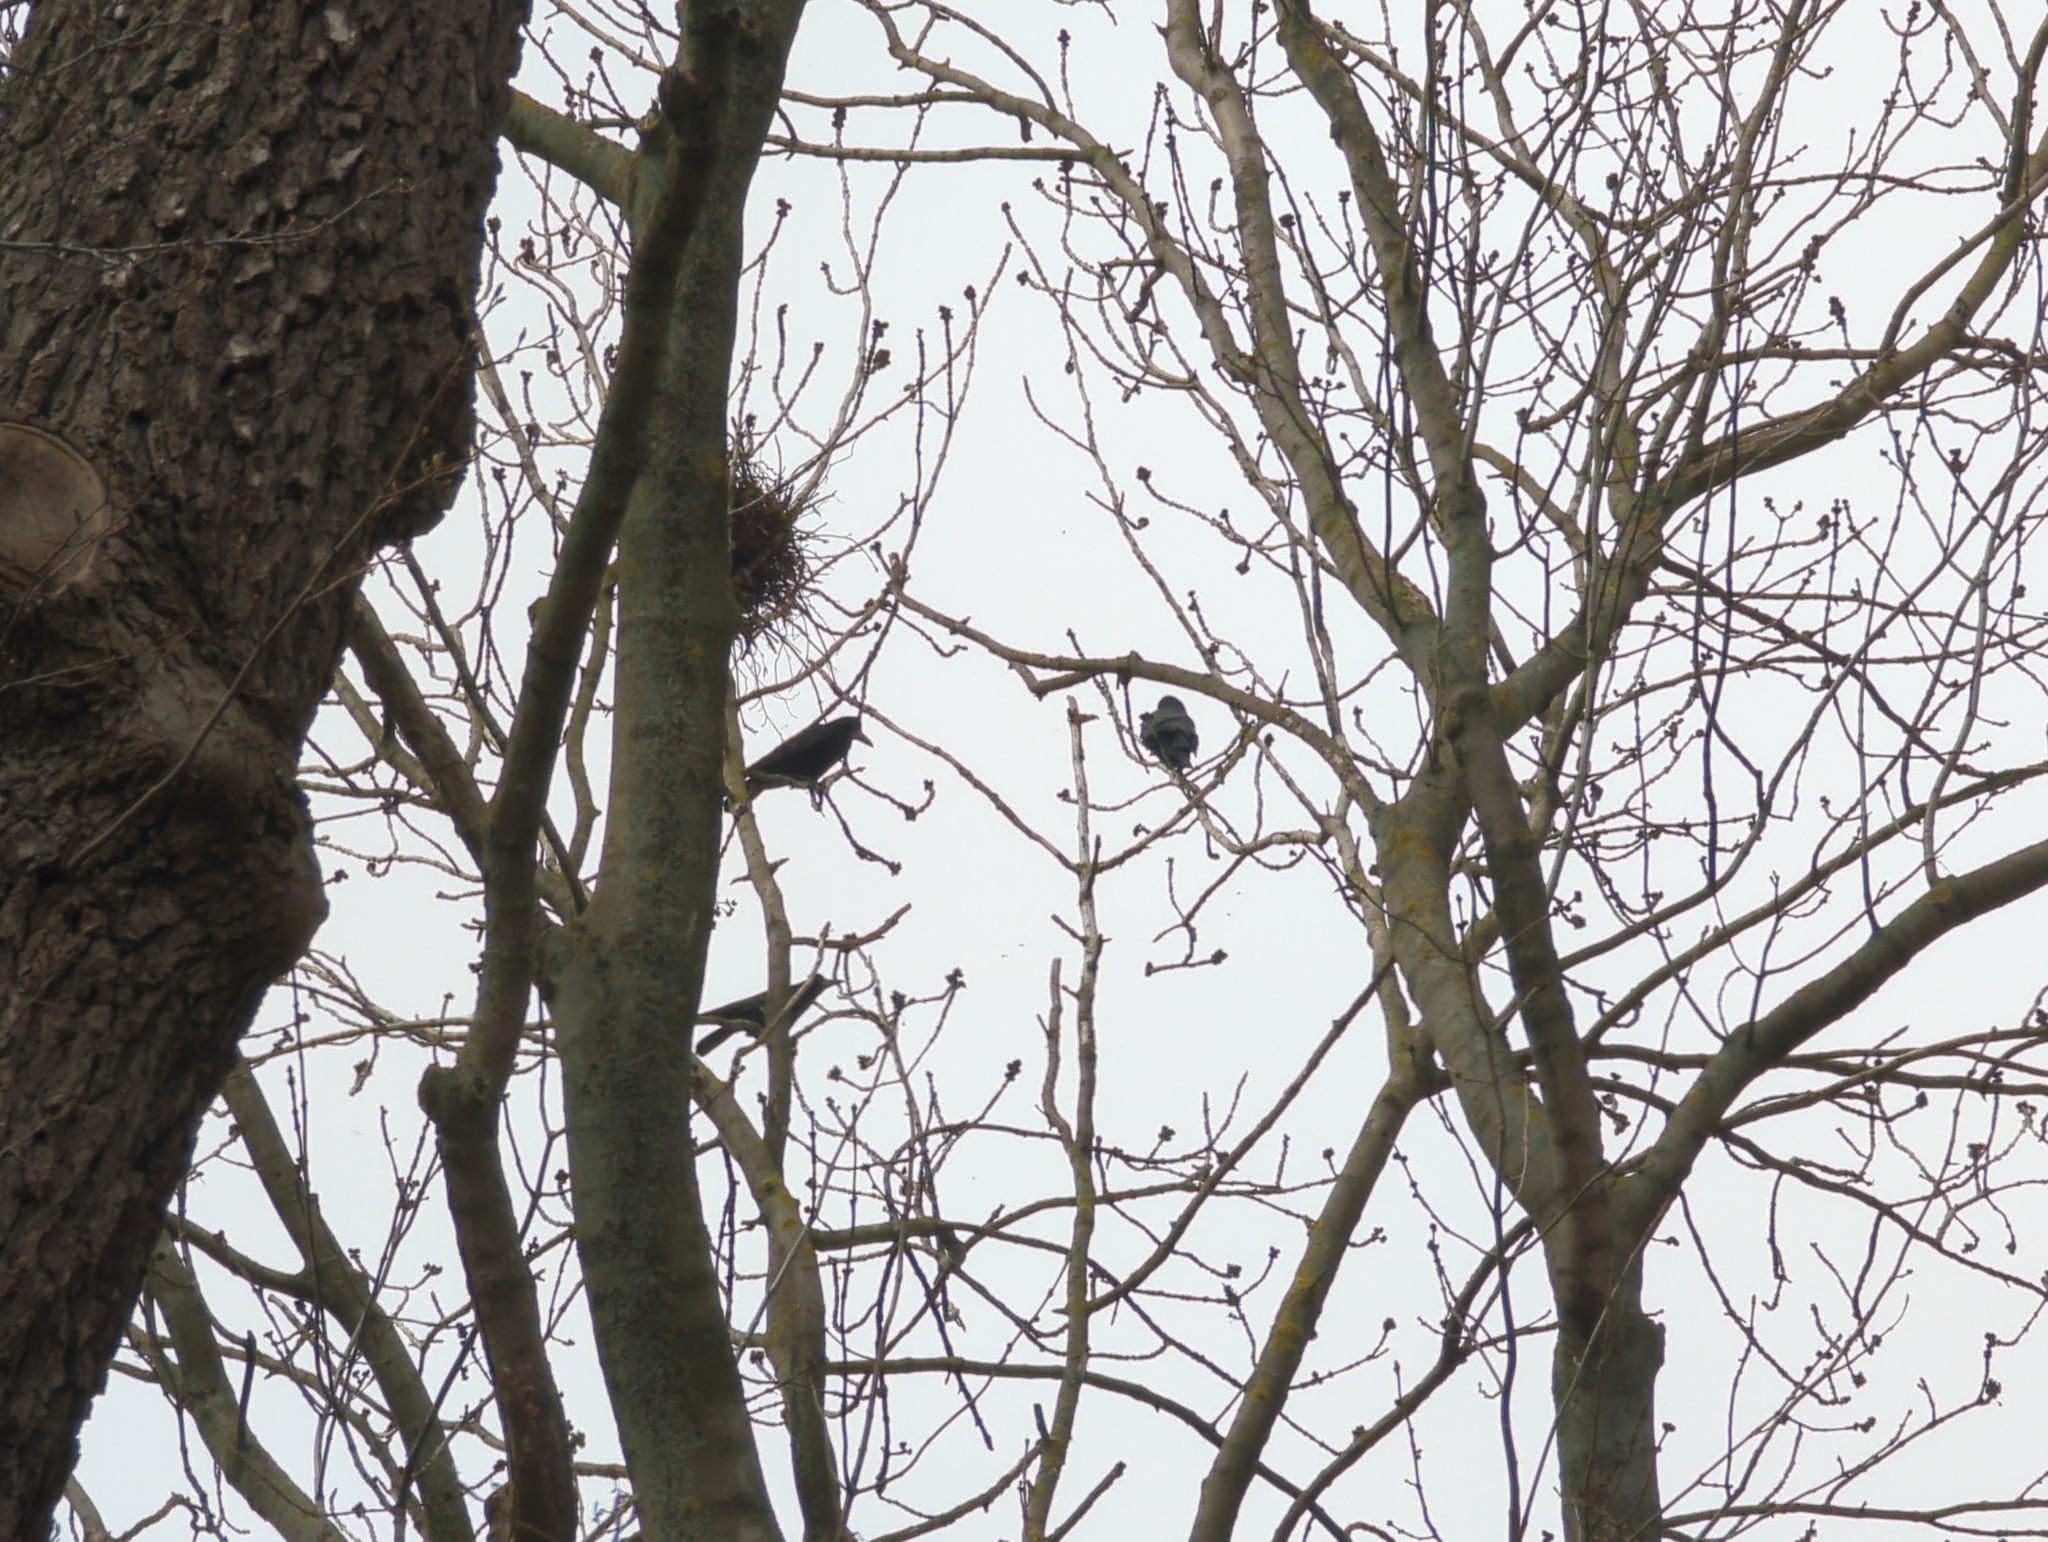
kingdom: Animalia
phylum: Chordata
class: Aves
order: Passeriformes
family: Corvidae
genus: Corvus
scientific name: Corvus frugilegus
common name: Rook
